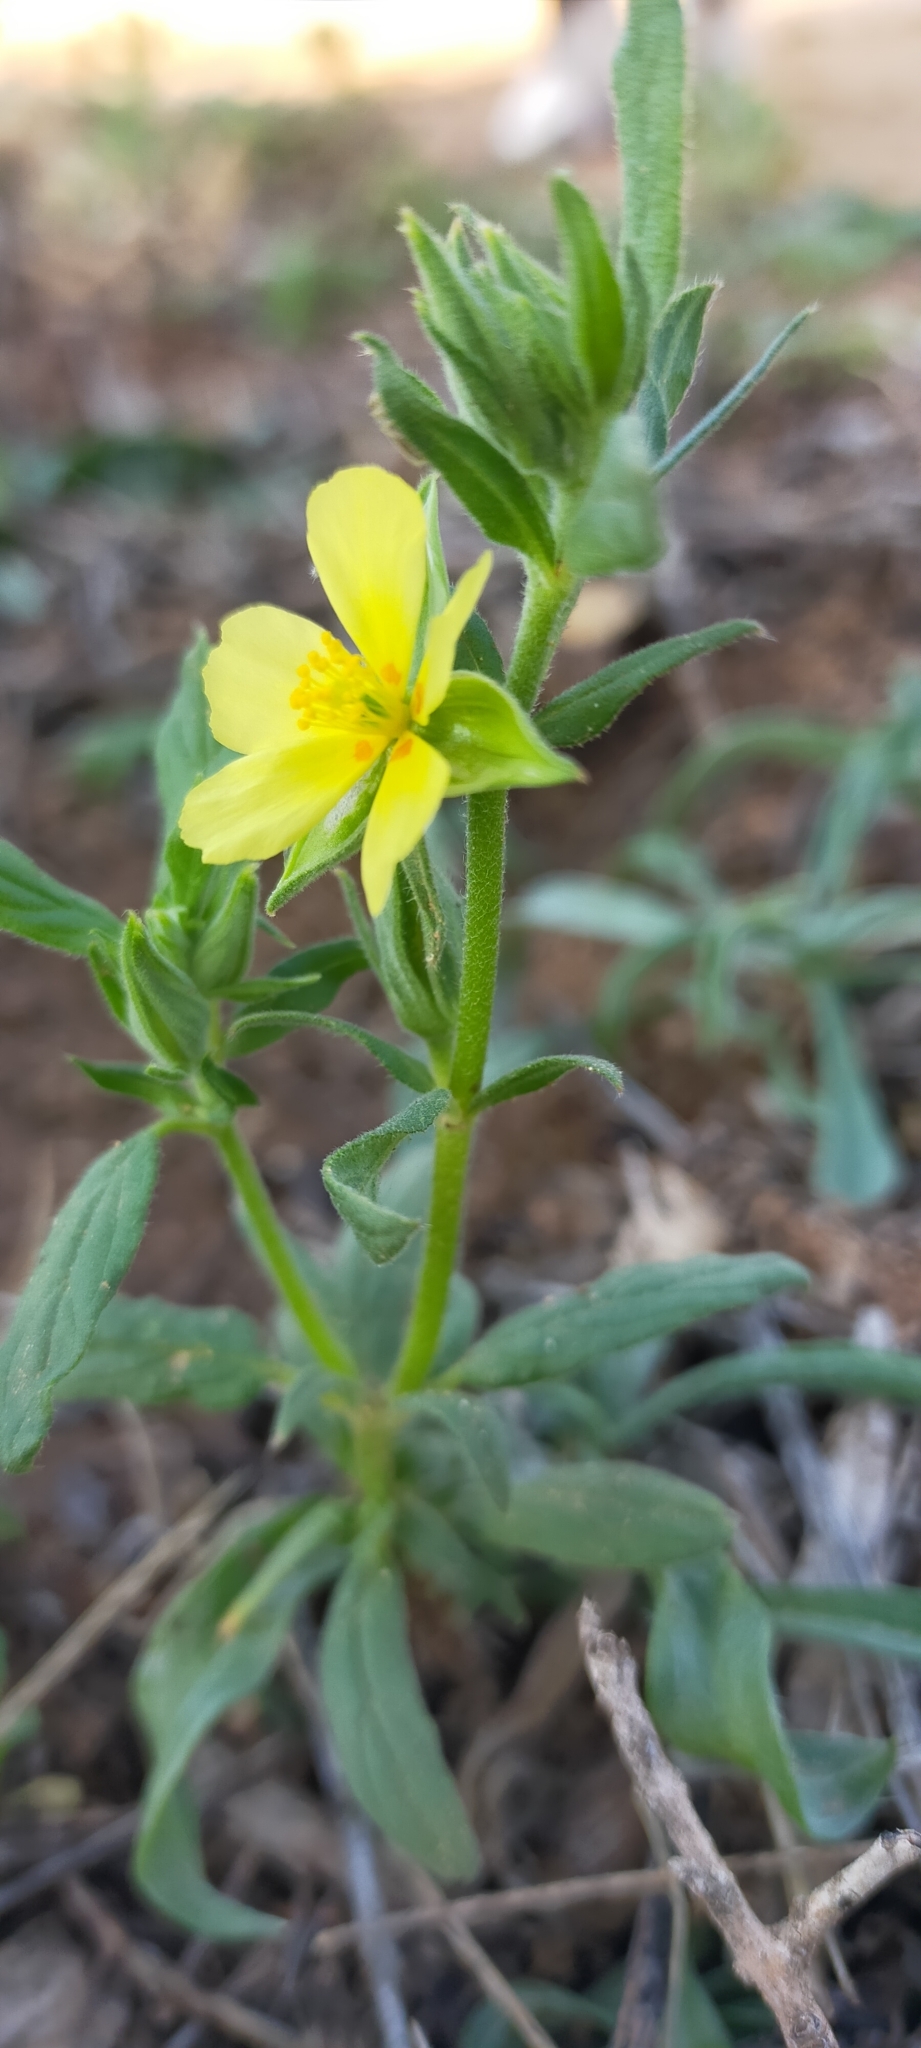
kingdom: Plantae
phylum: Tracheophyta
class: Magnoliopsida
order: Malvales
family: Cistaceae
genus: Helianthemum
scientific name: Helianthemum ledifolium
